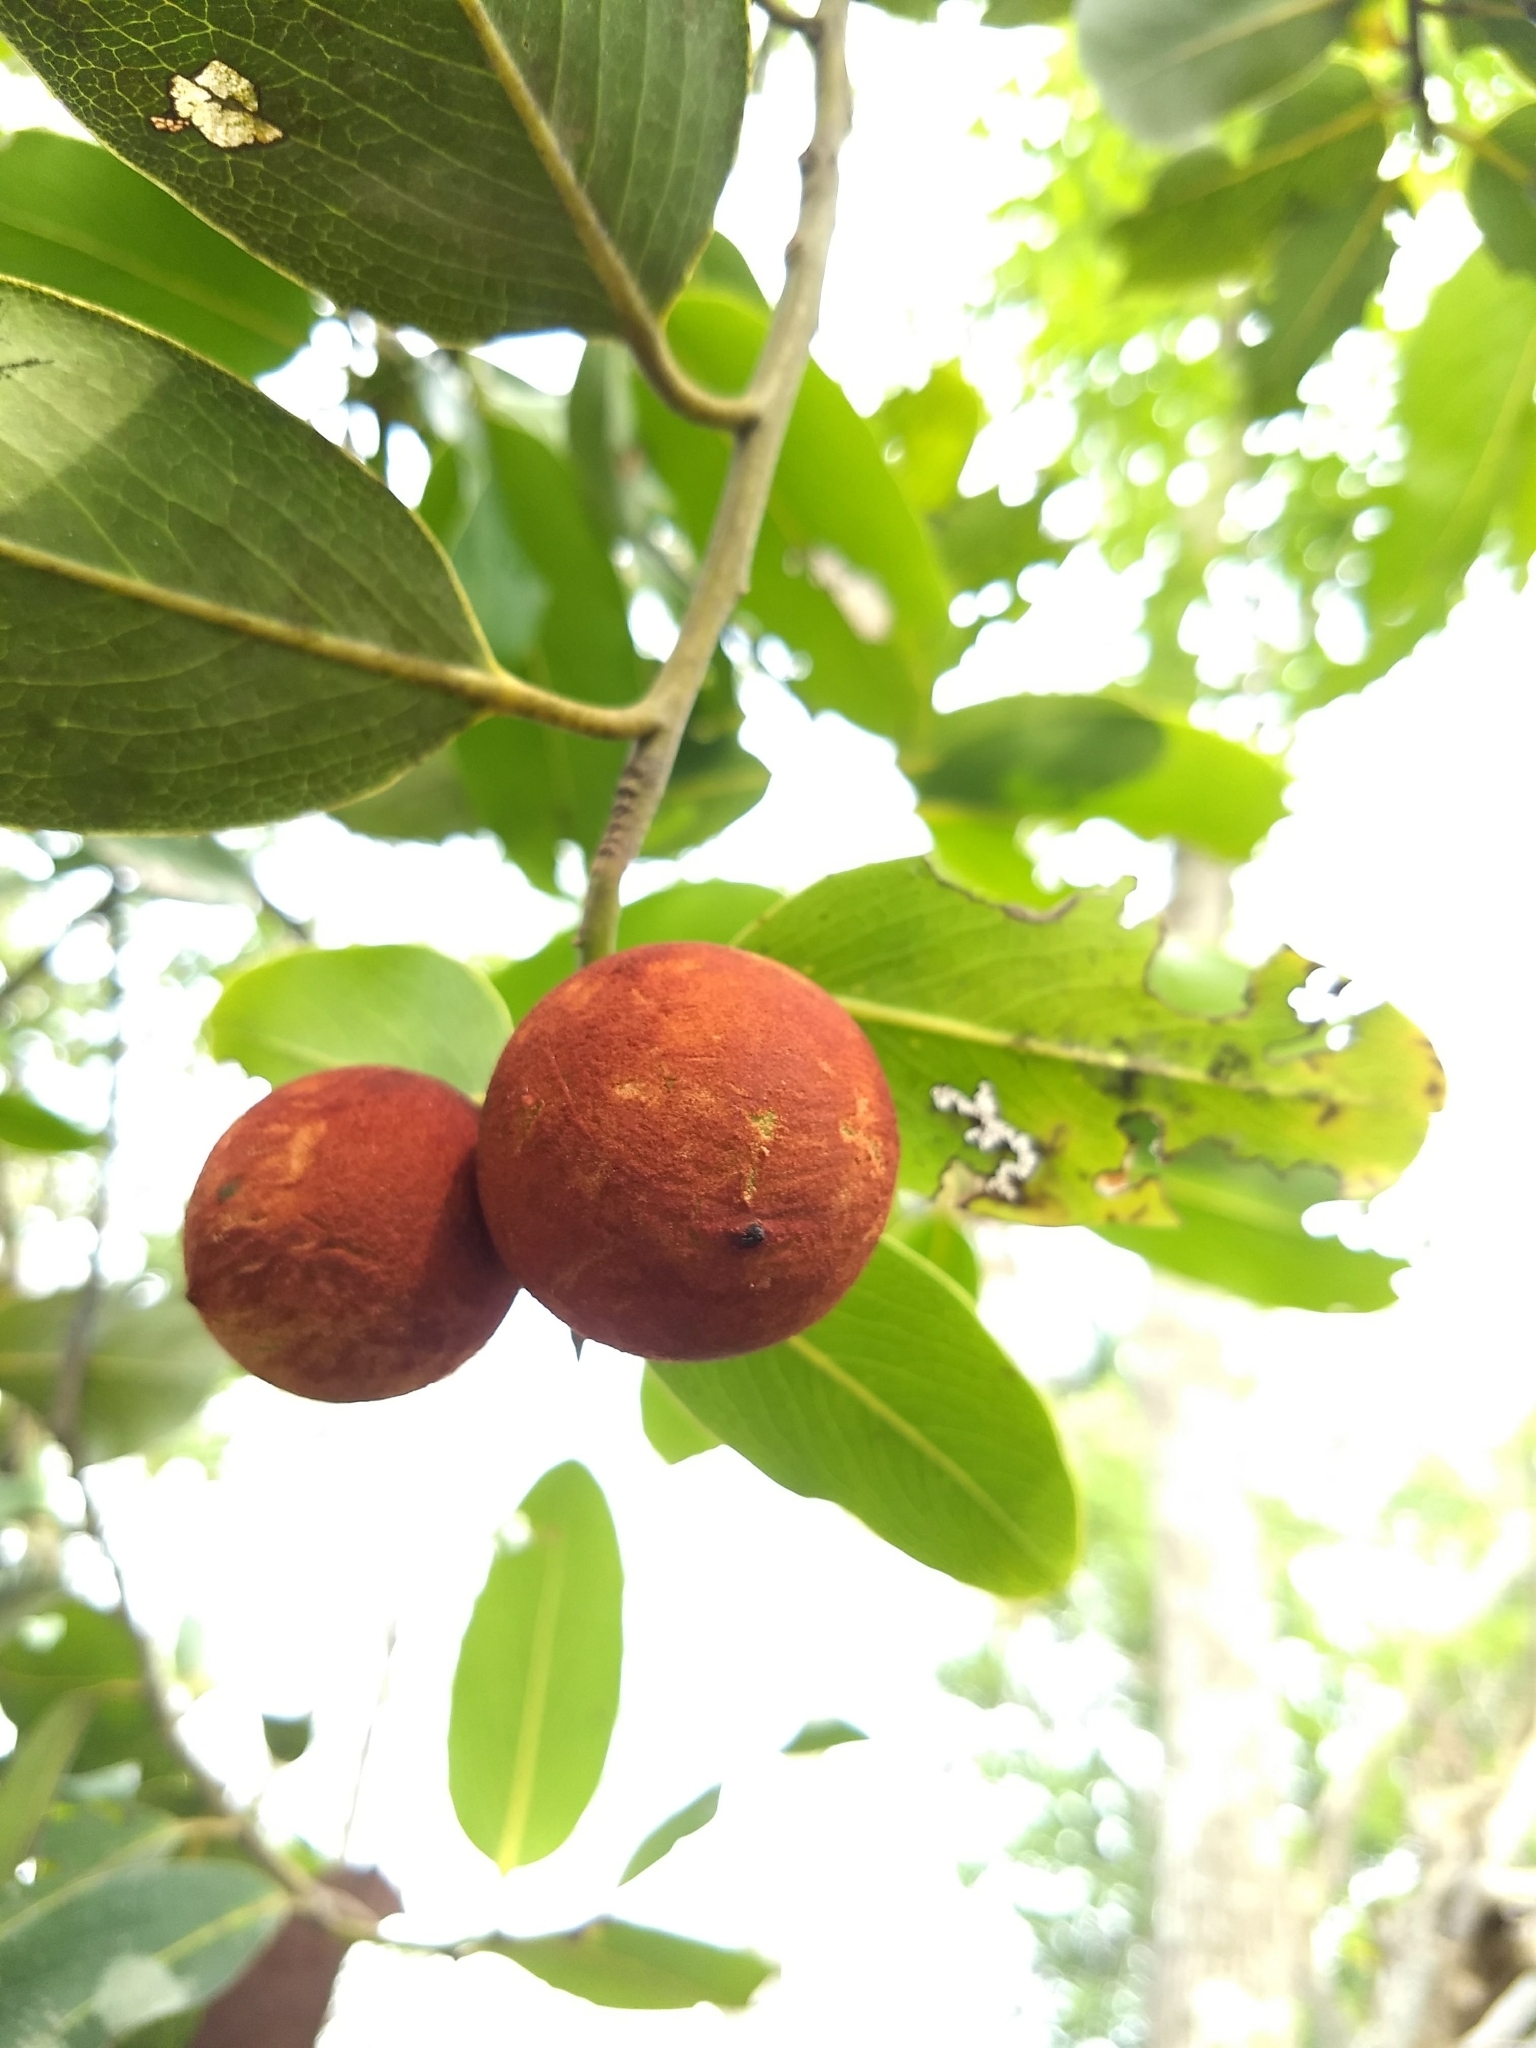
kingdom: Plantae
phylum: Tracheophyta
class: Magnoliopsida
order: Ericales
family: Ebenaceae
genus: Diospyros
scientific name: Diospyros malabarica
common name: Mountain ebony
